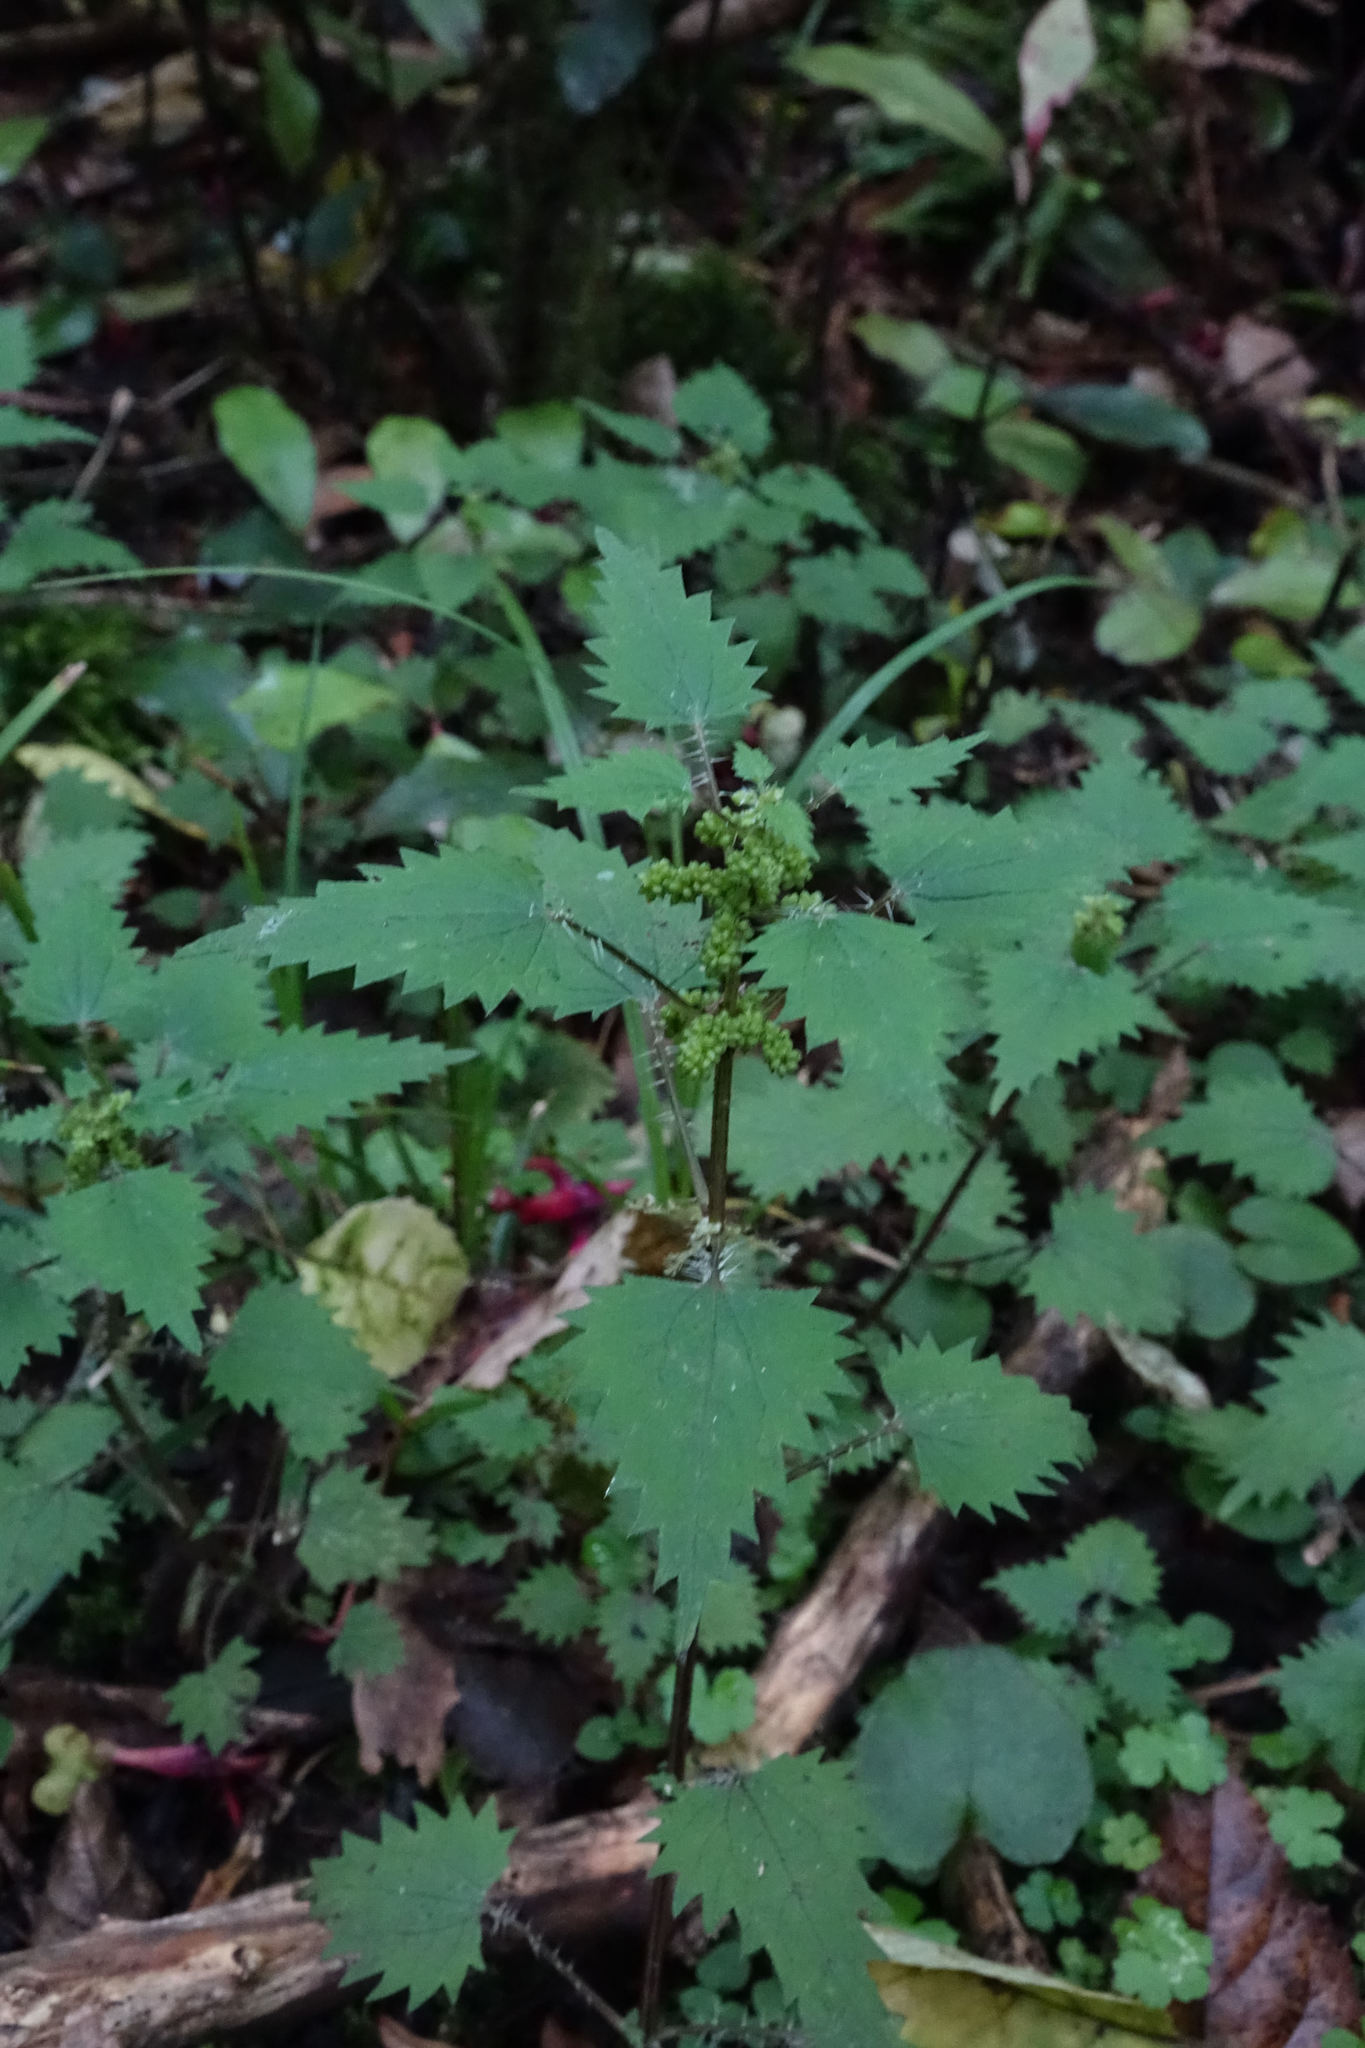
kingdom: Plantae
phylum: Tracheophyta
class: Magnoliopsida
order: Rosales
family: Urticaceae
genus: Urtica
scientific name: Urtica sykesii
